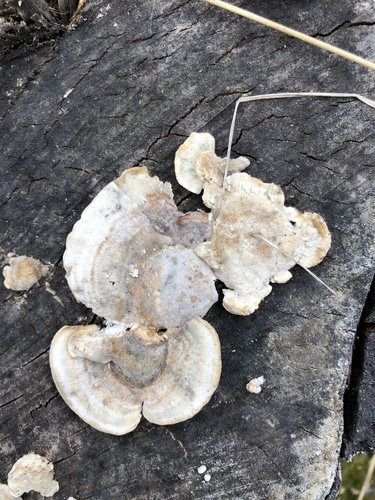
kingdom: Fungi
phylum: Basidiomycota
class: Agaricomycetes
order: Polyporales
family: Polyporaceae
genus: Trametes
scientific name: Trametes ochracea
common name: Ochre bracket
